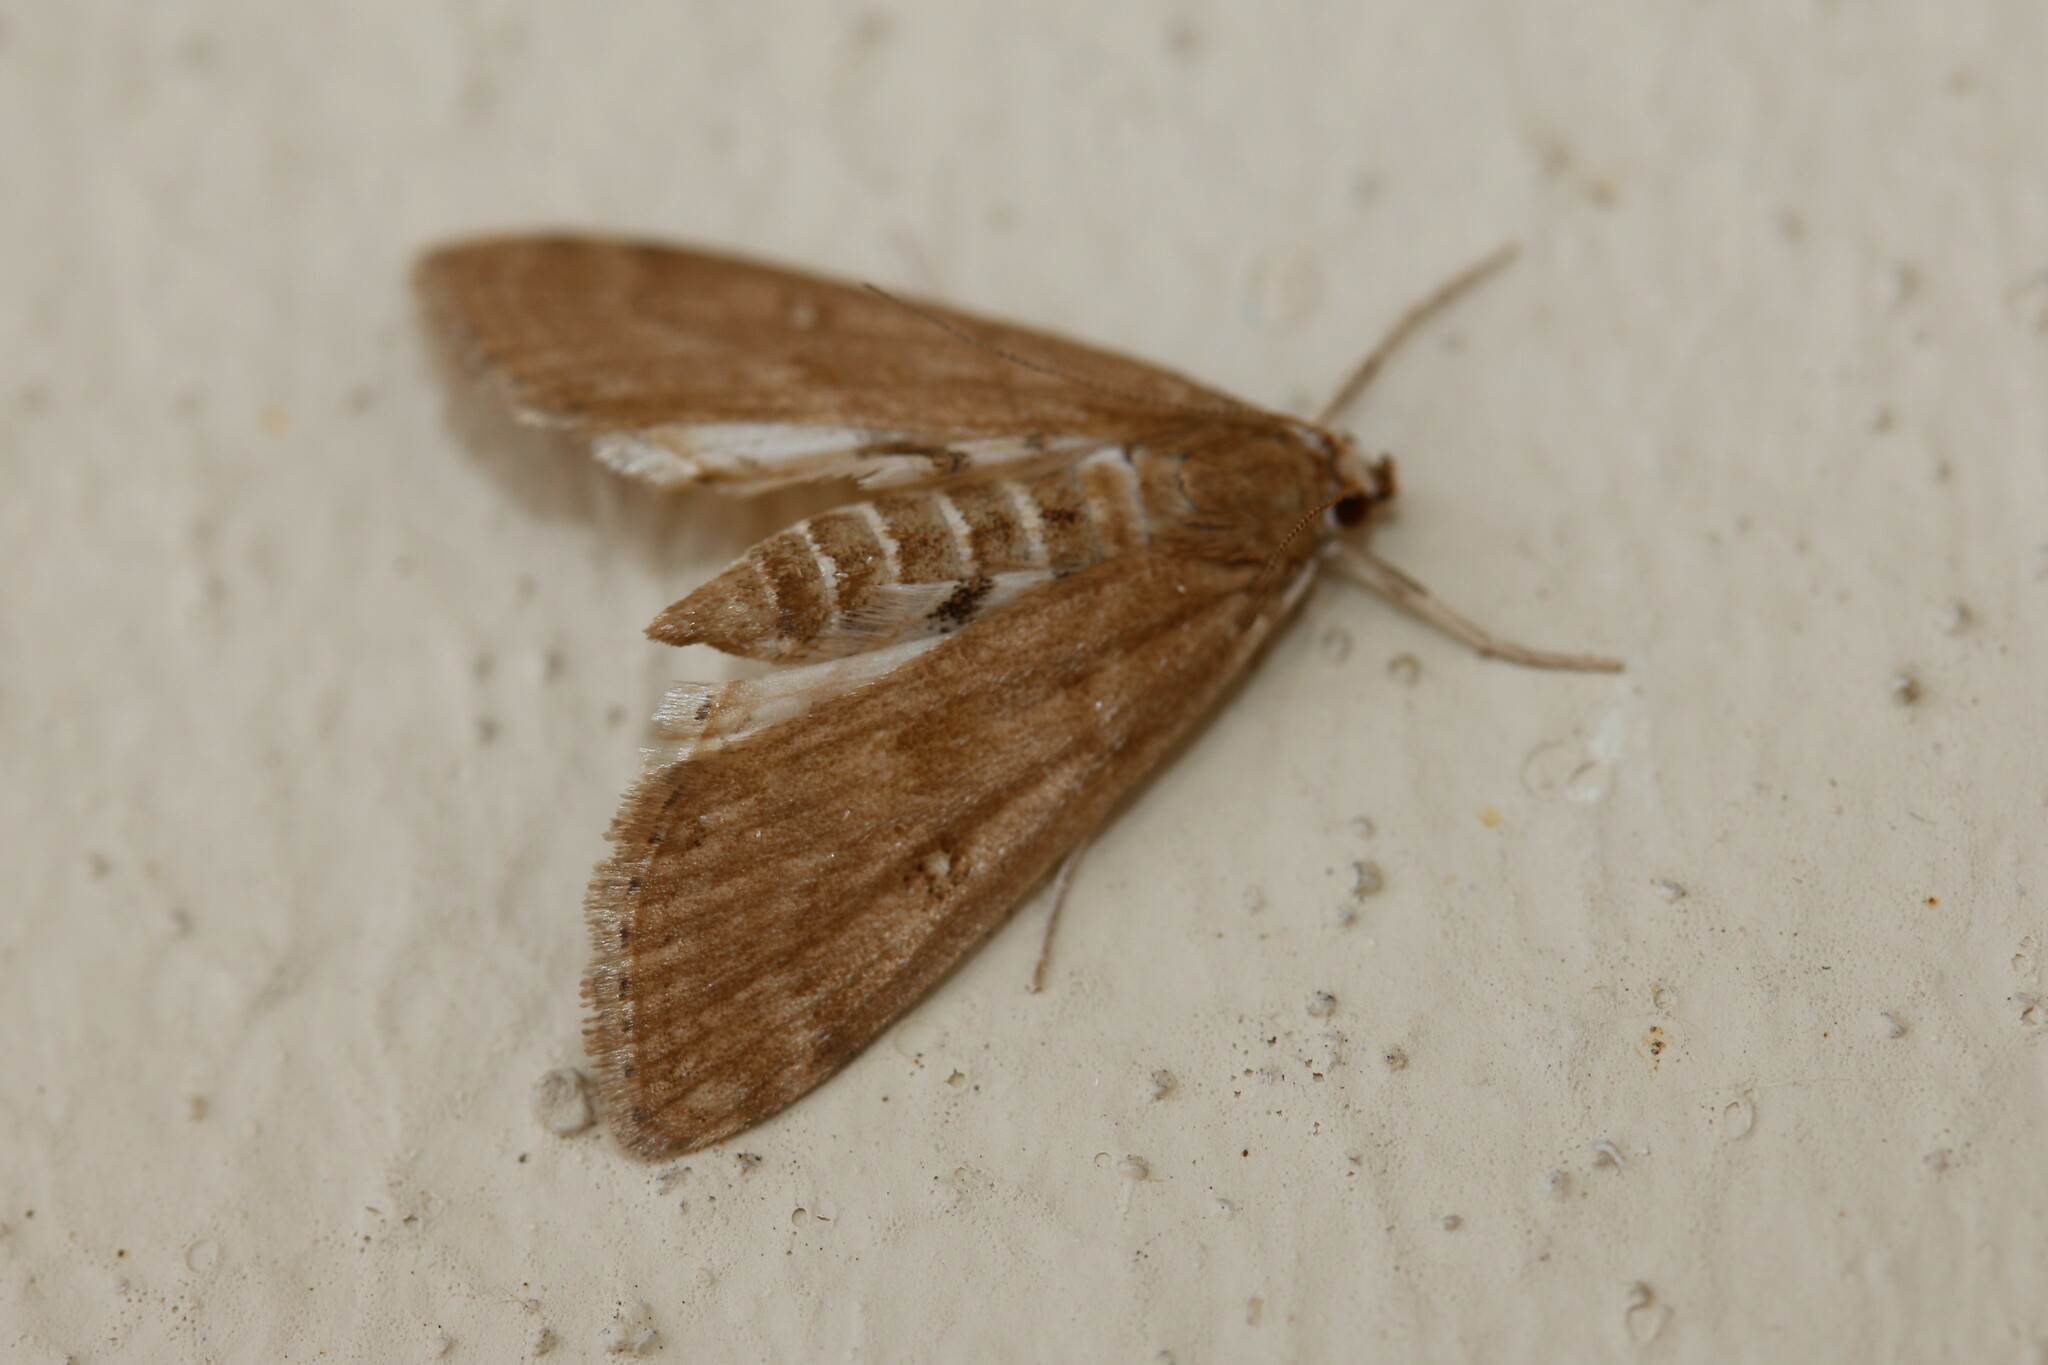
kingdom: Animalia
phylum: Arthropoda
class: Insecta
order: Lepidoptera
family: Crambidae
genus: Parapoynx
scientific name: Parapoynx stratiotata
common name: Ringed china-mark
